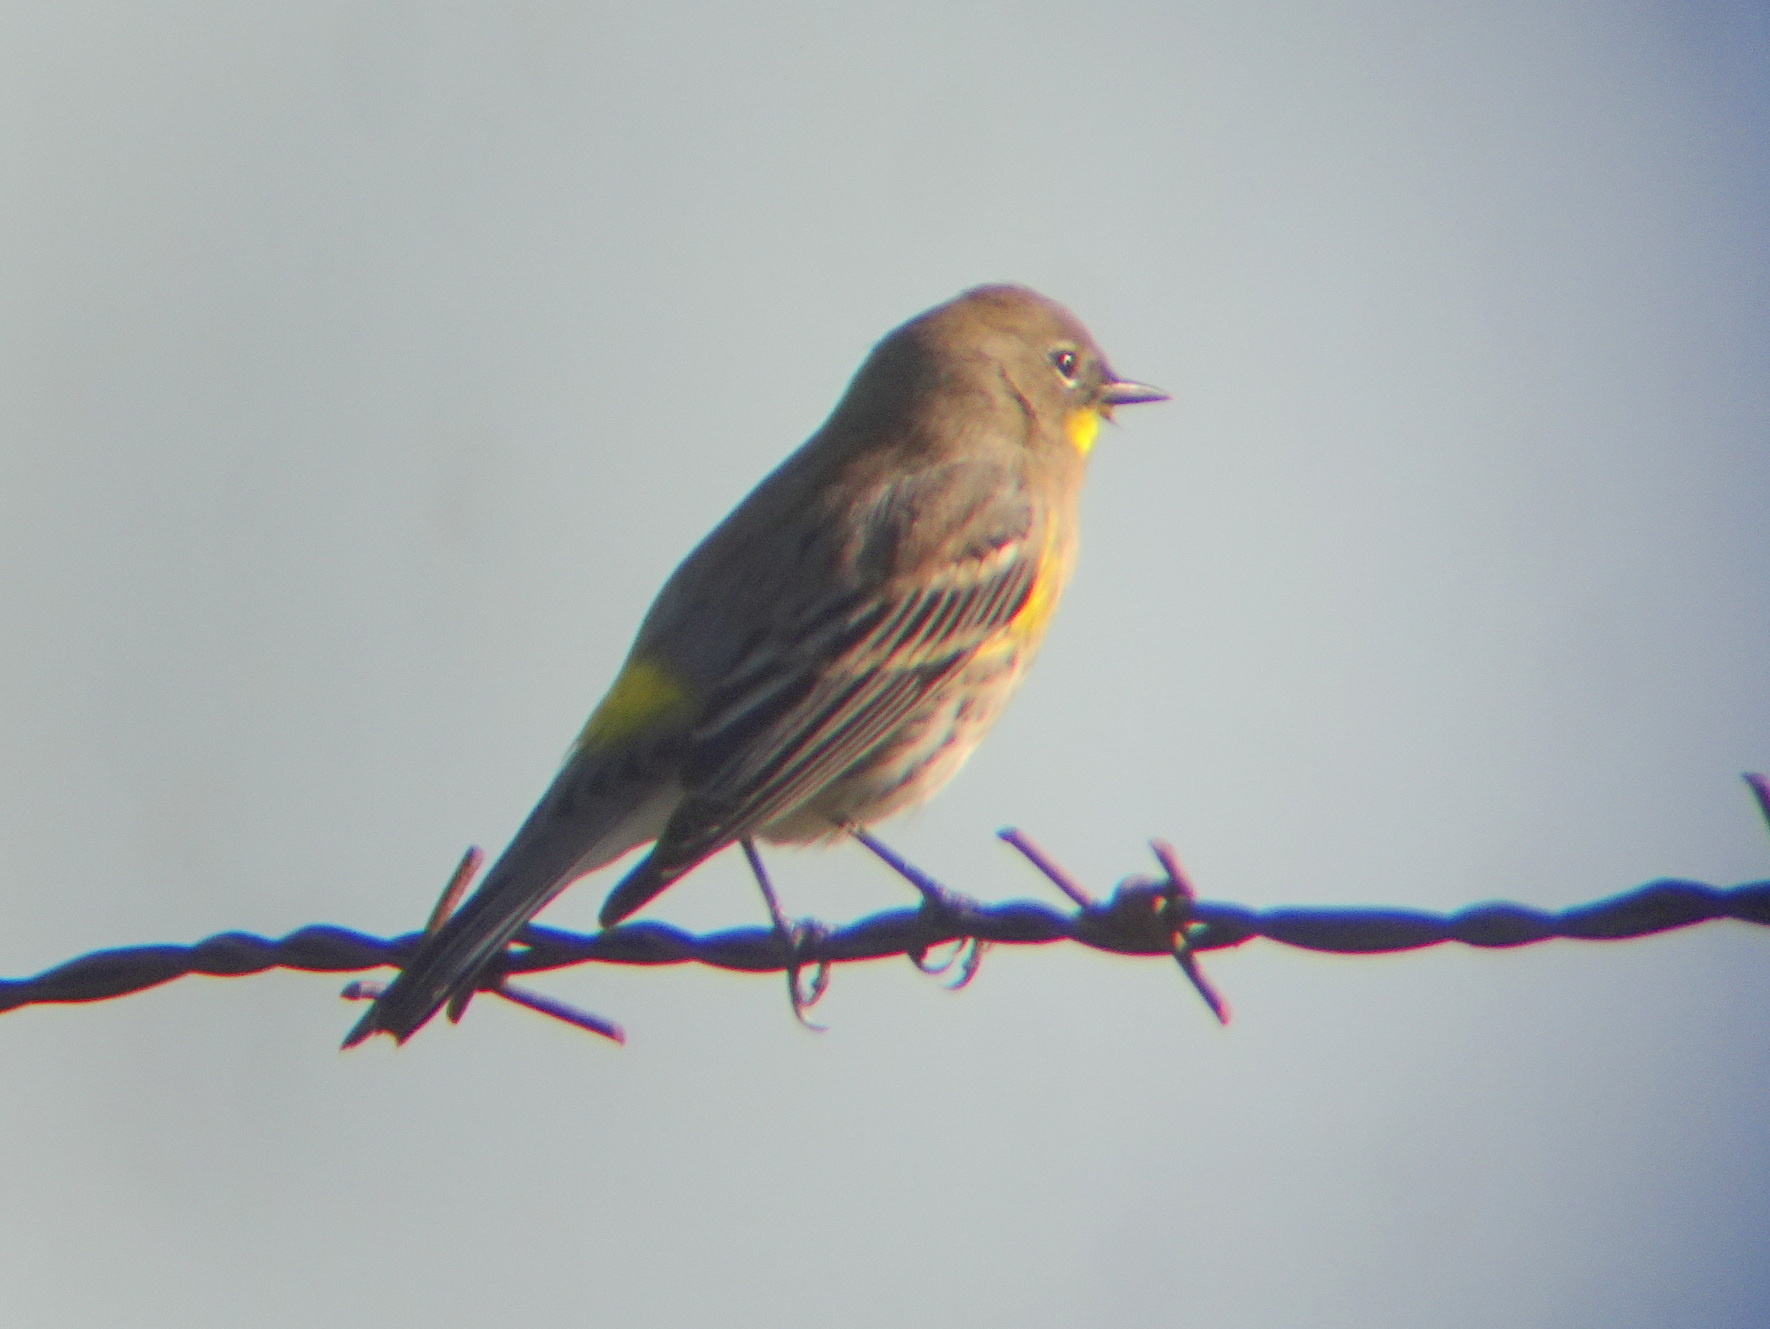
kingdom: Animalia
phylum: Chordata
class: Aves
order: Passeriformes
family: Parulidae
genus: Setophaga
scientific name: Setophaga coronata
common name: Myrtle warbler
